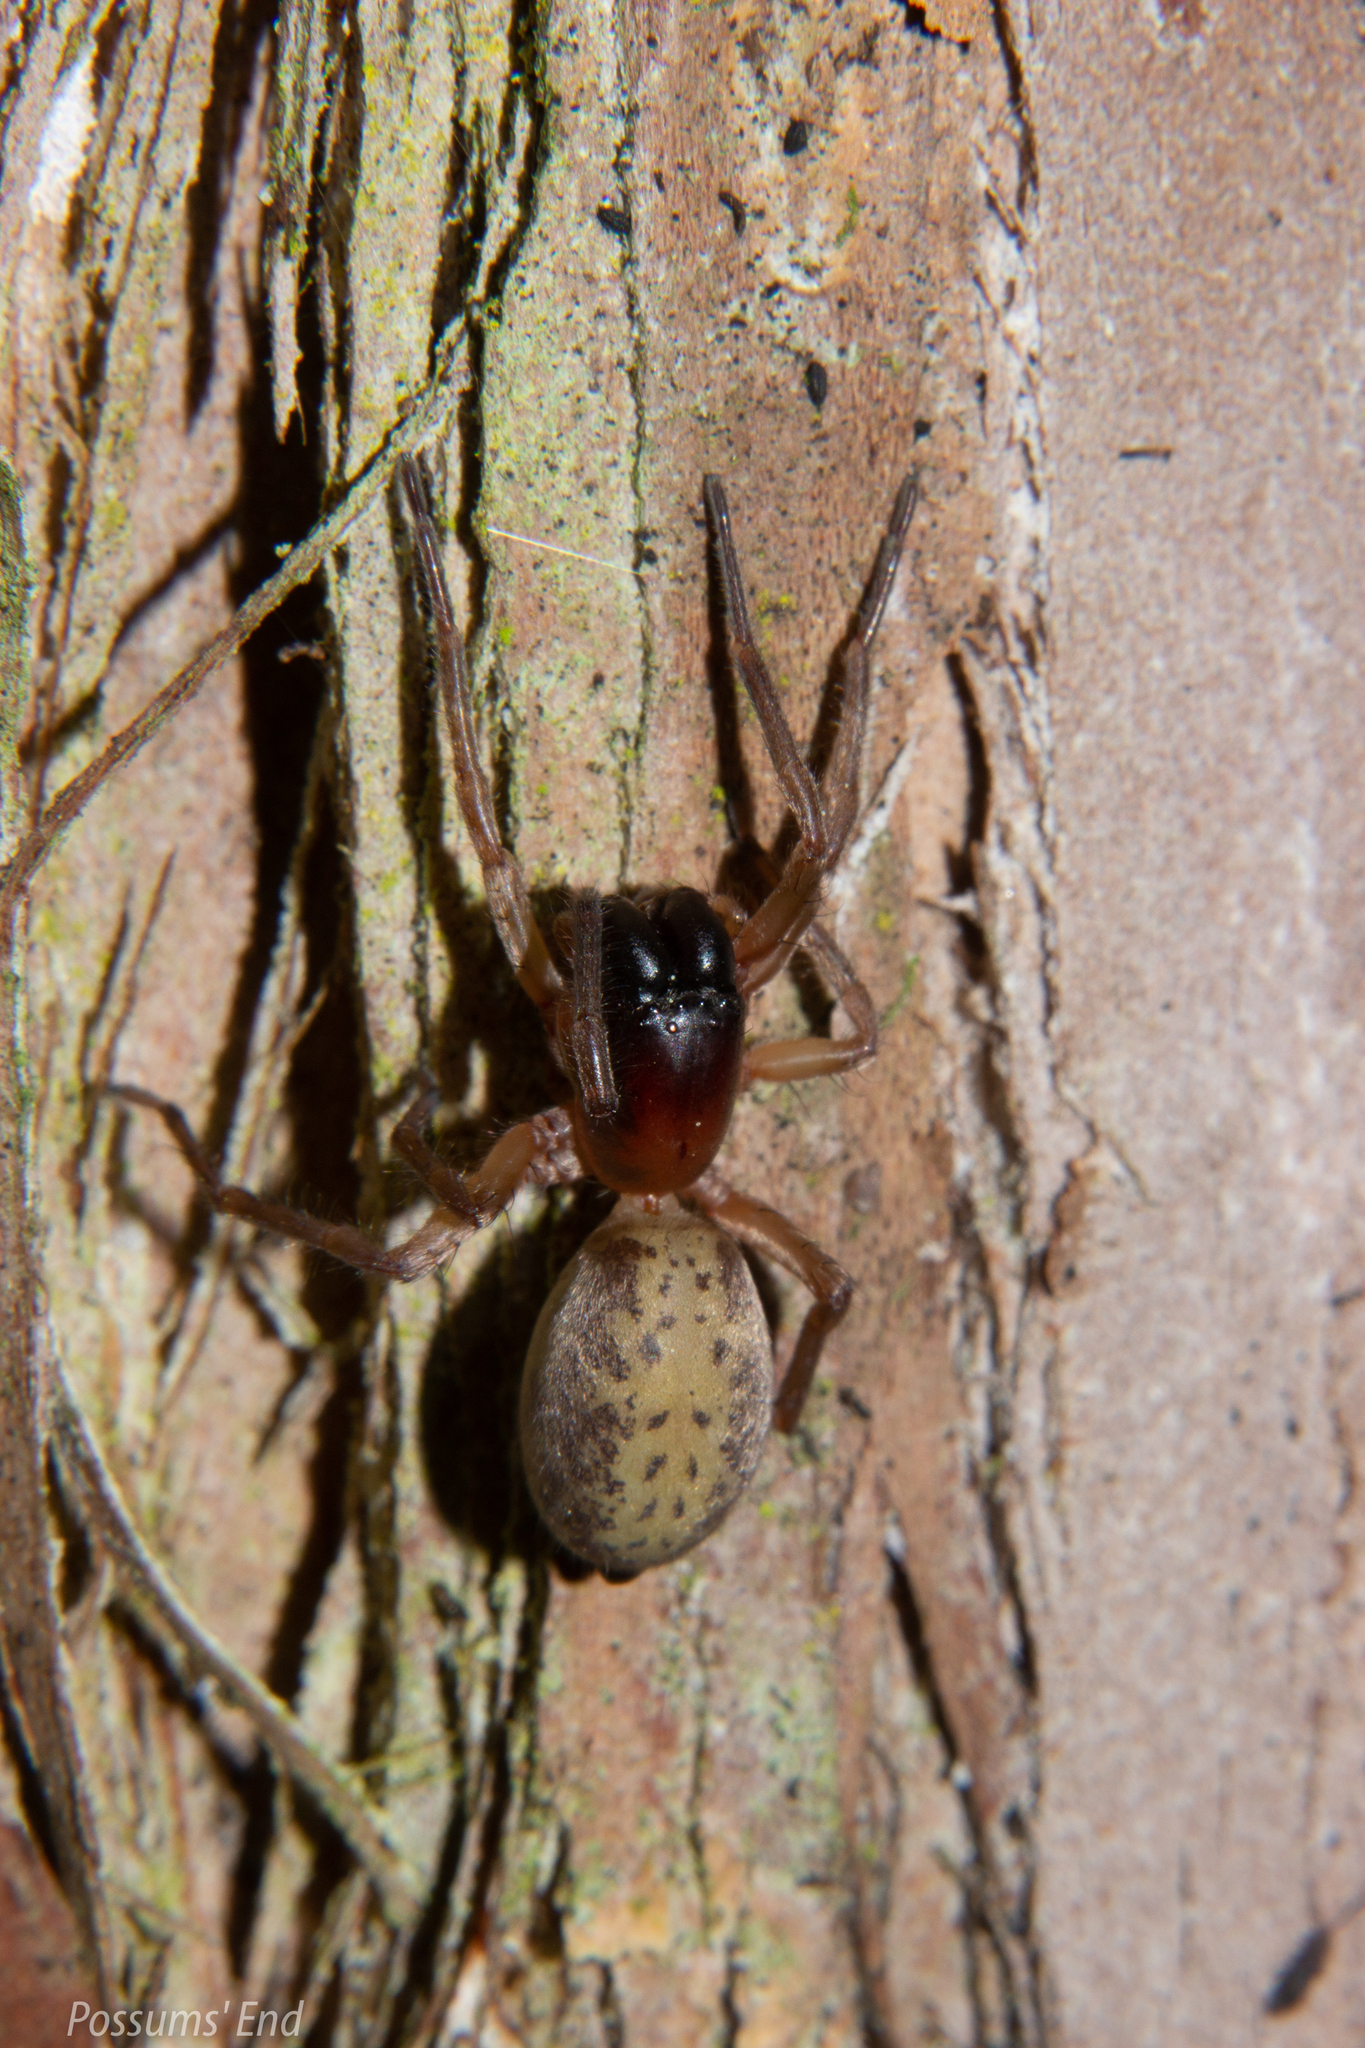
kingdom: Animalia
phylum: Arthropoda
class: Arachnida
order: Araneae
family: Clubionidae
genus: Clubiona
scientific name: Clubiona peculiaris
